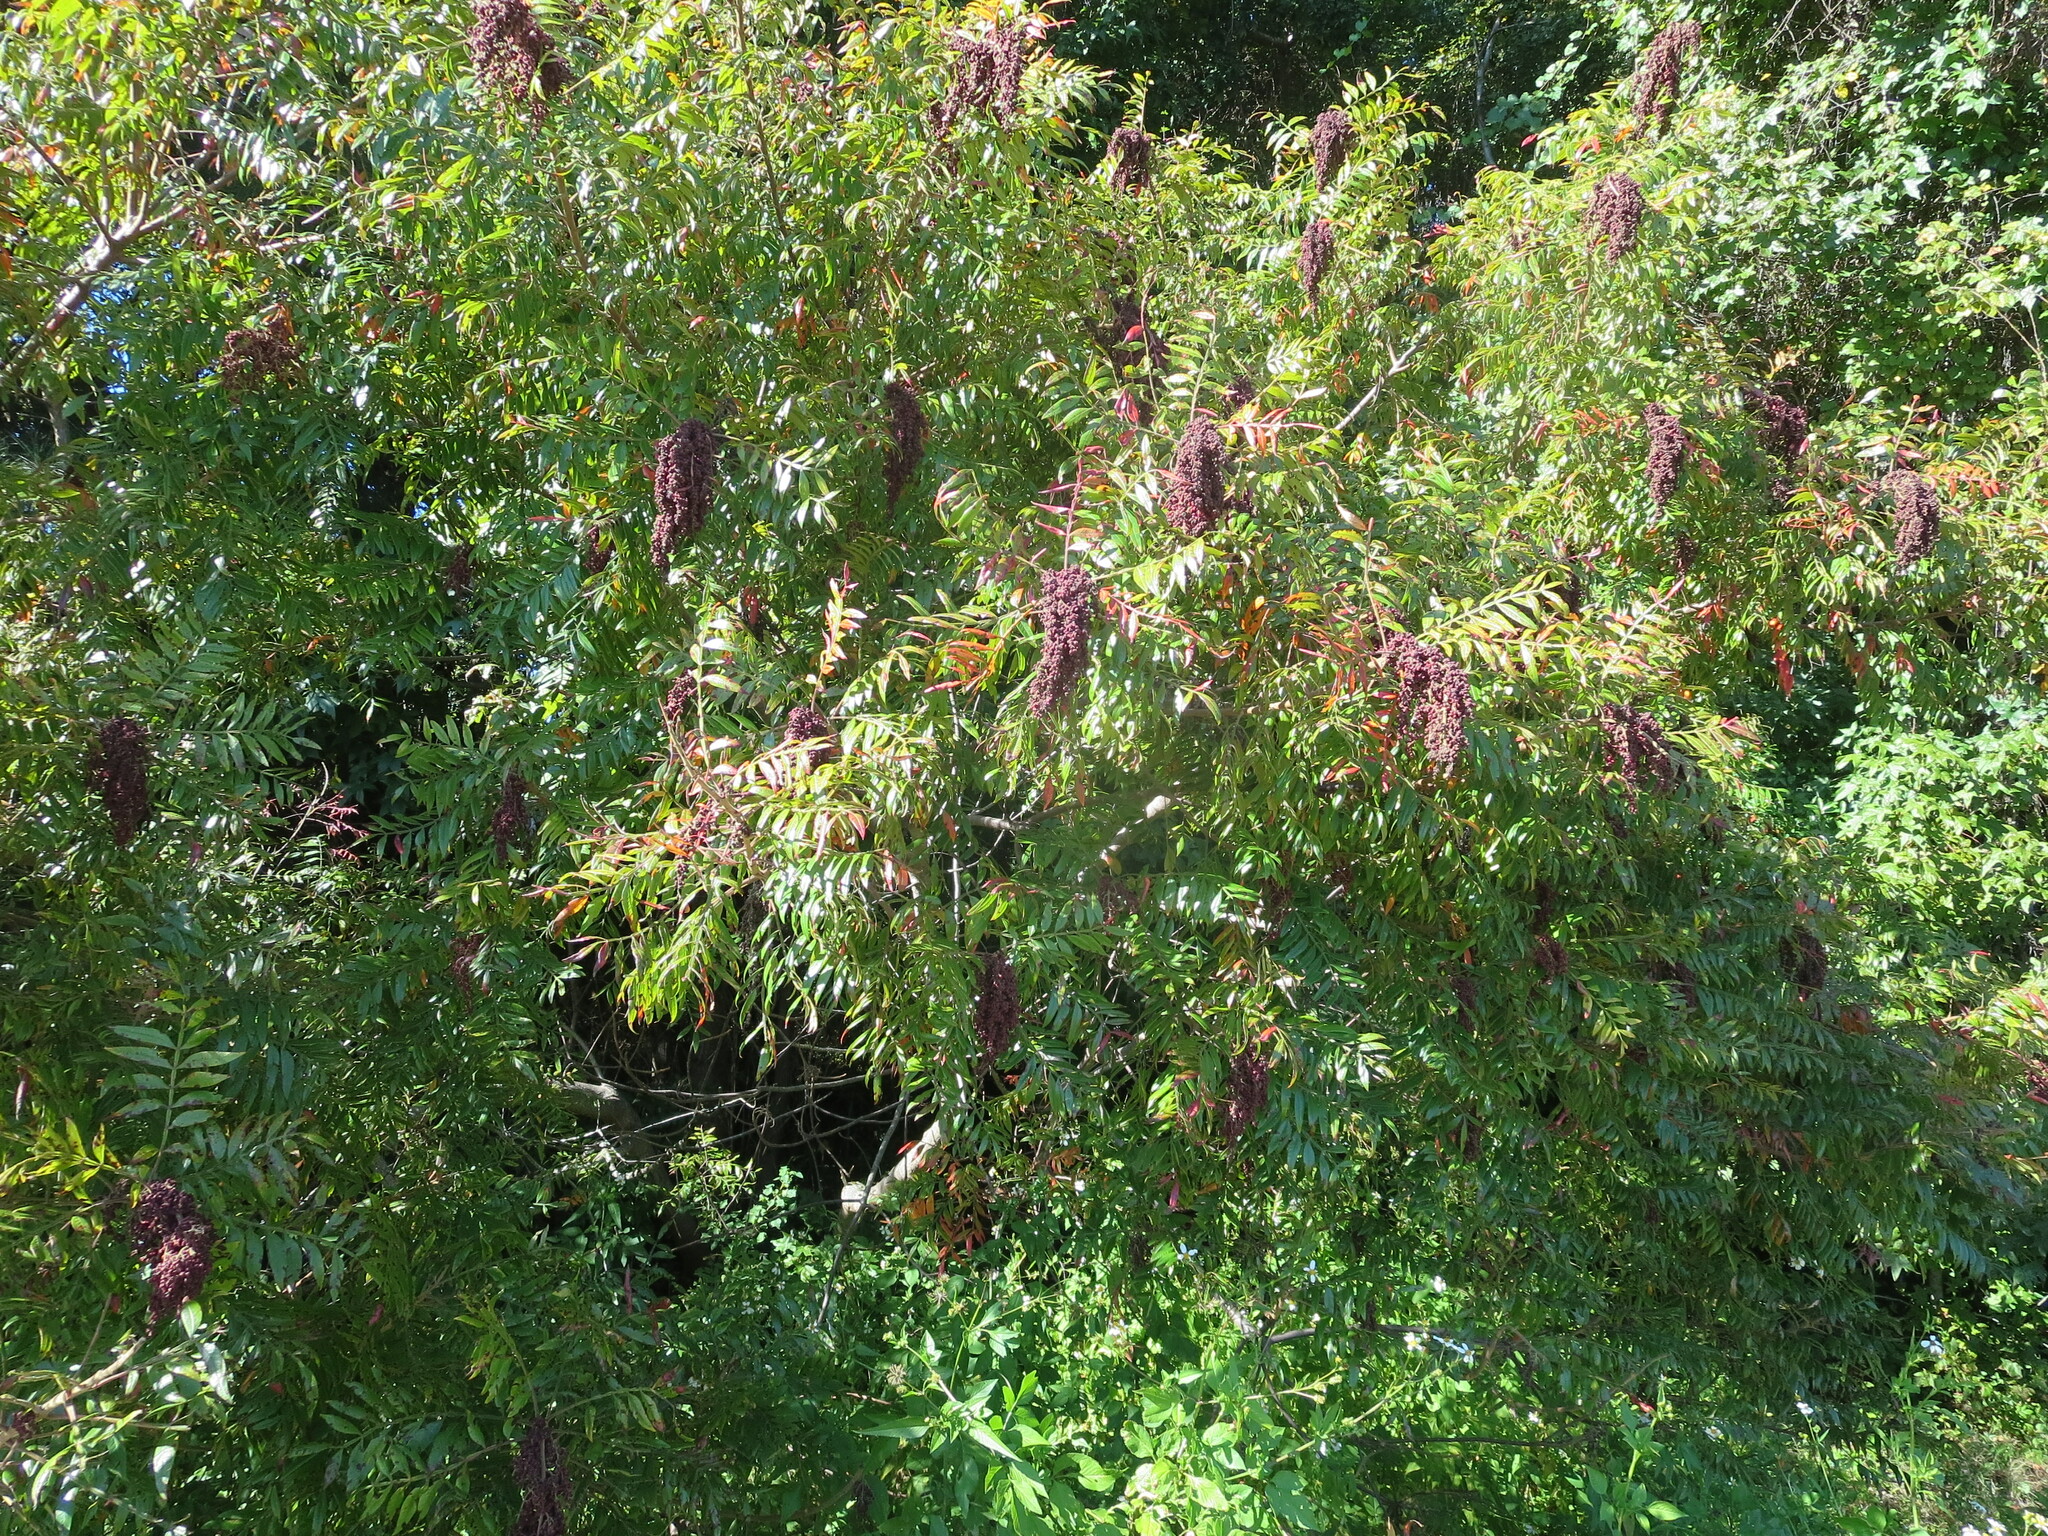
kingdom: Plantae
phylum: Tracheophyta
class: Magnoliopsida
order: Sapindales
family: Anacardiaceae
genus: Rhus
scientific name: Rhus copallina
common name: Shining sumac
